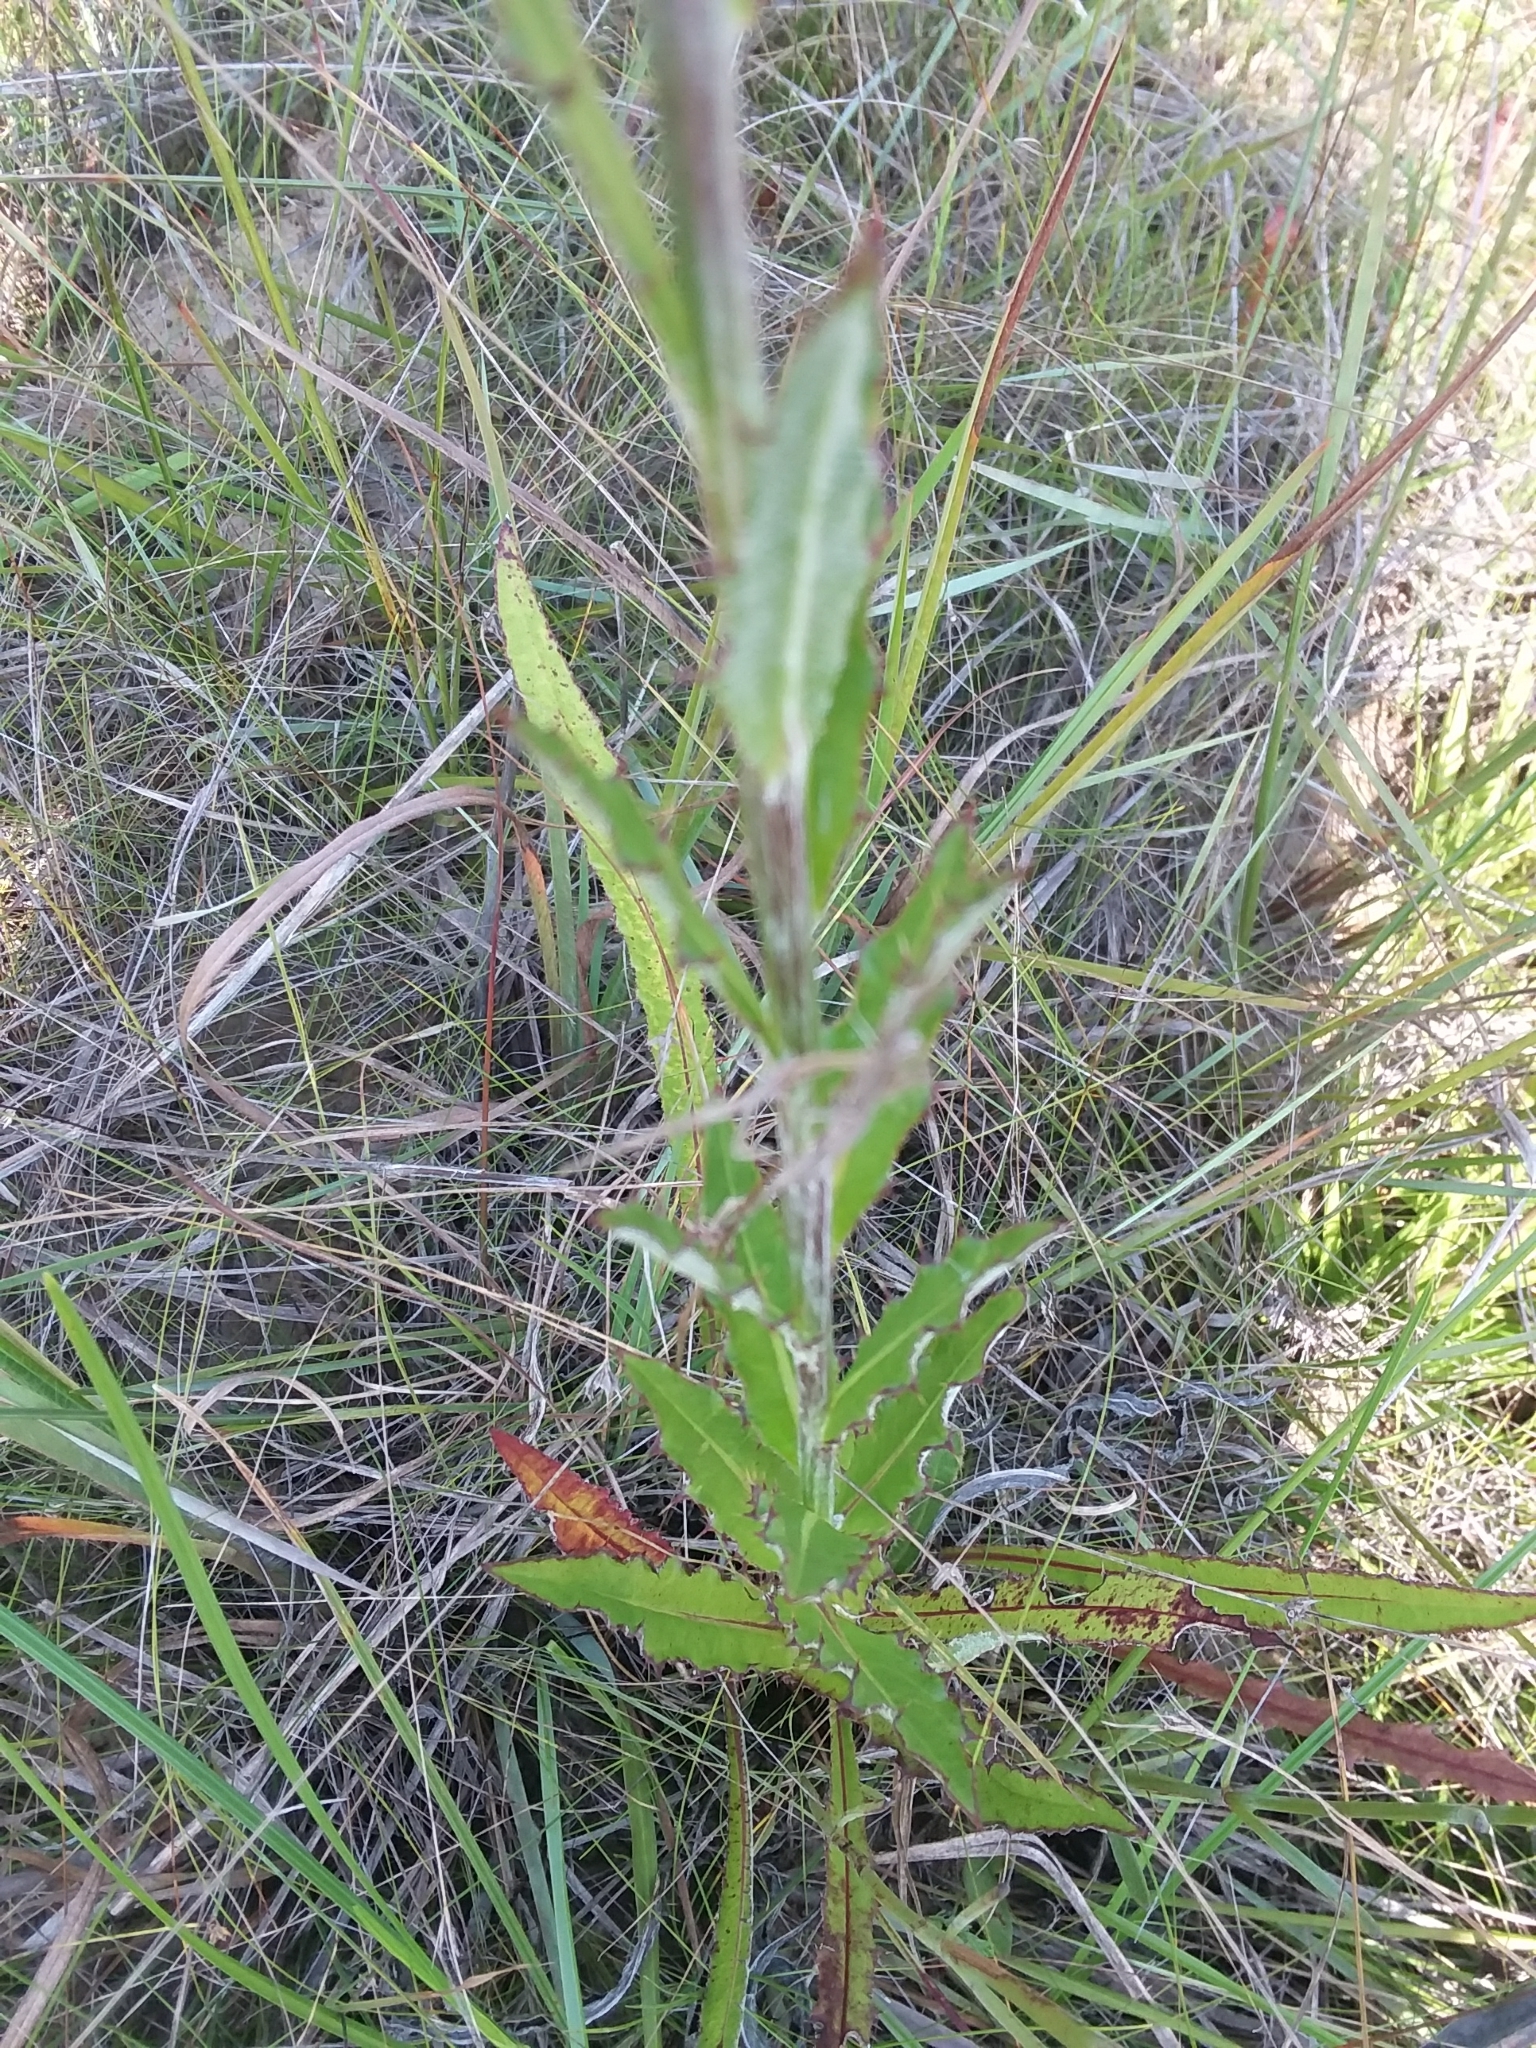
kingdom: Plantae
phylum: Tracheophyta
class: Magnoliopsida
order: Asterales
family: Asteraceae
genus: Cirsium
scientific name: Cirsium lecontei
